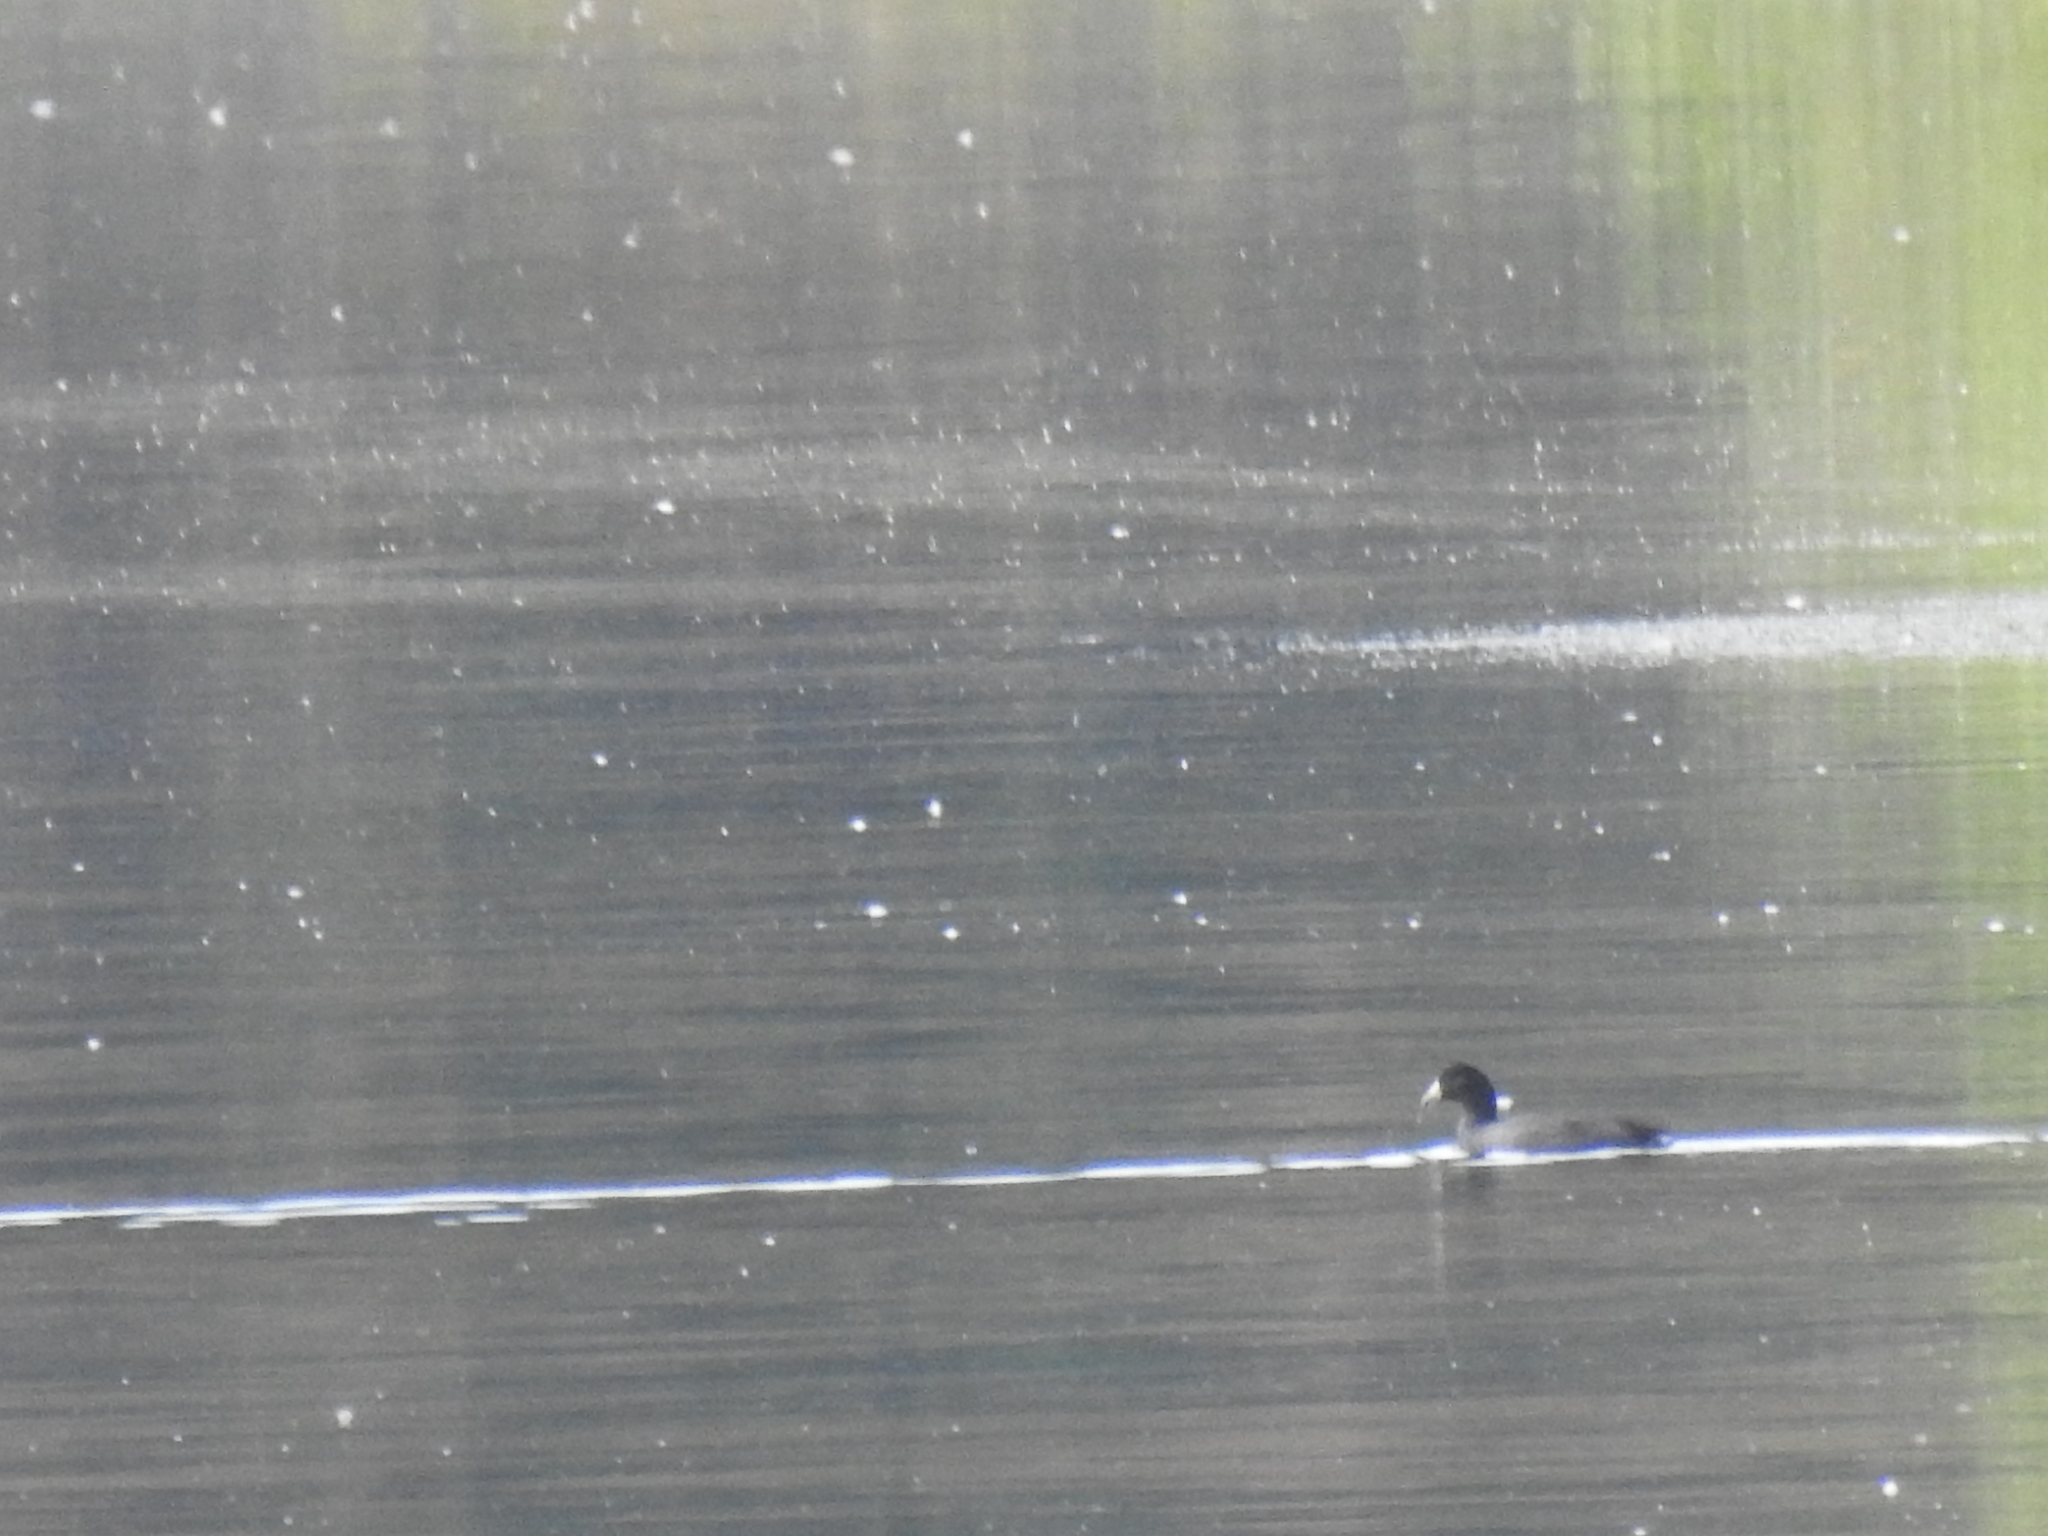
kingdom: Animalia
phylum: Chordata
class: Aves
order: Gruiformes
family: Rallidae
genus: Fulica
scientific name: Fulica americana
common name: American coot
